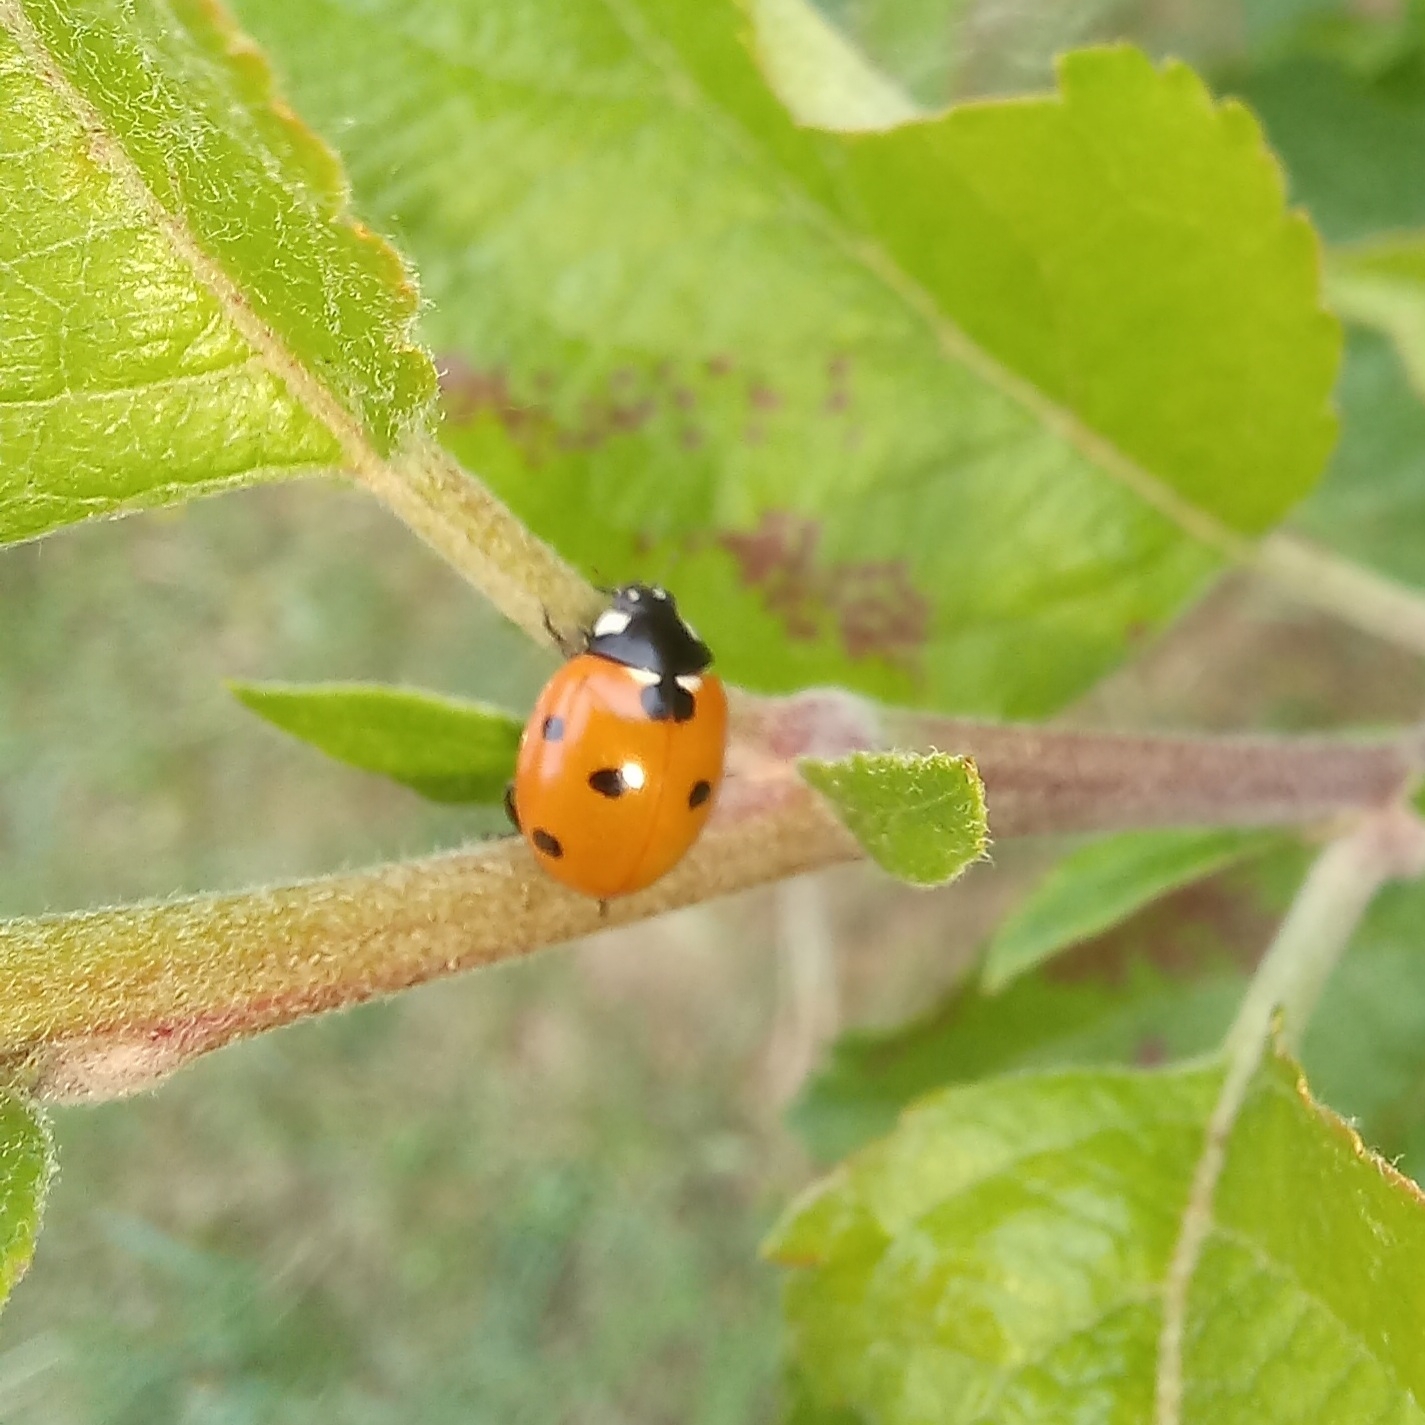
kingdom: Animalia
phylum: Arthropoda
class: Insecta
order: Coleoptera
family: Coccinellidae
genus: Coccinella
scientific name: Coccinella septempunctata
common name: Sevenspotted lady beetle
